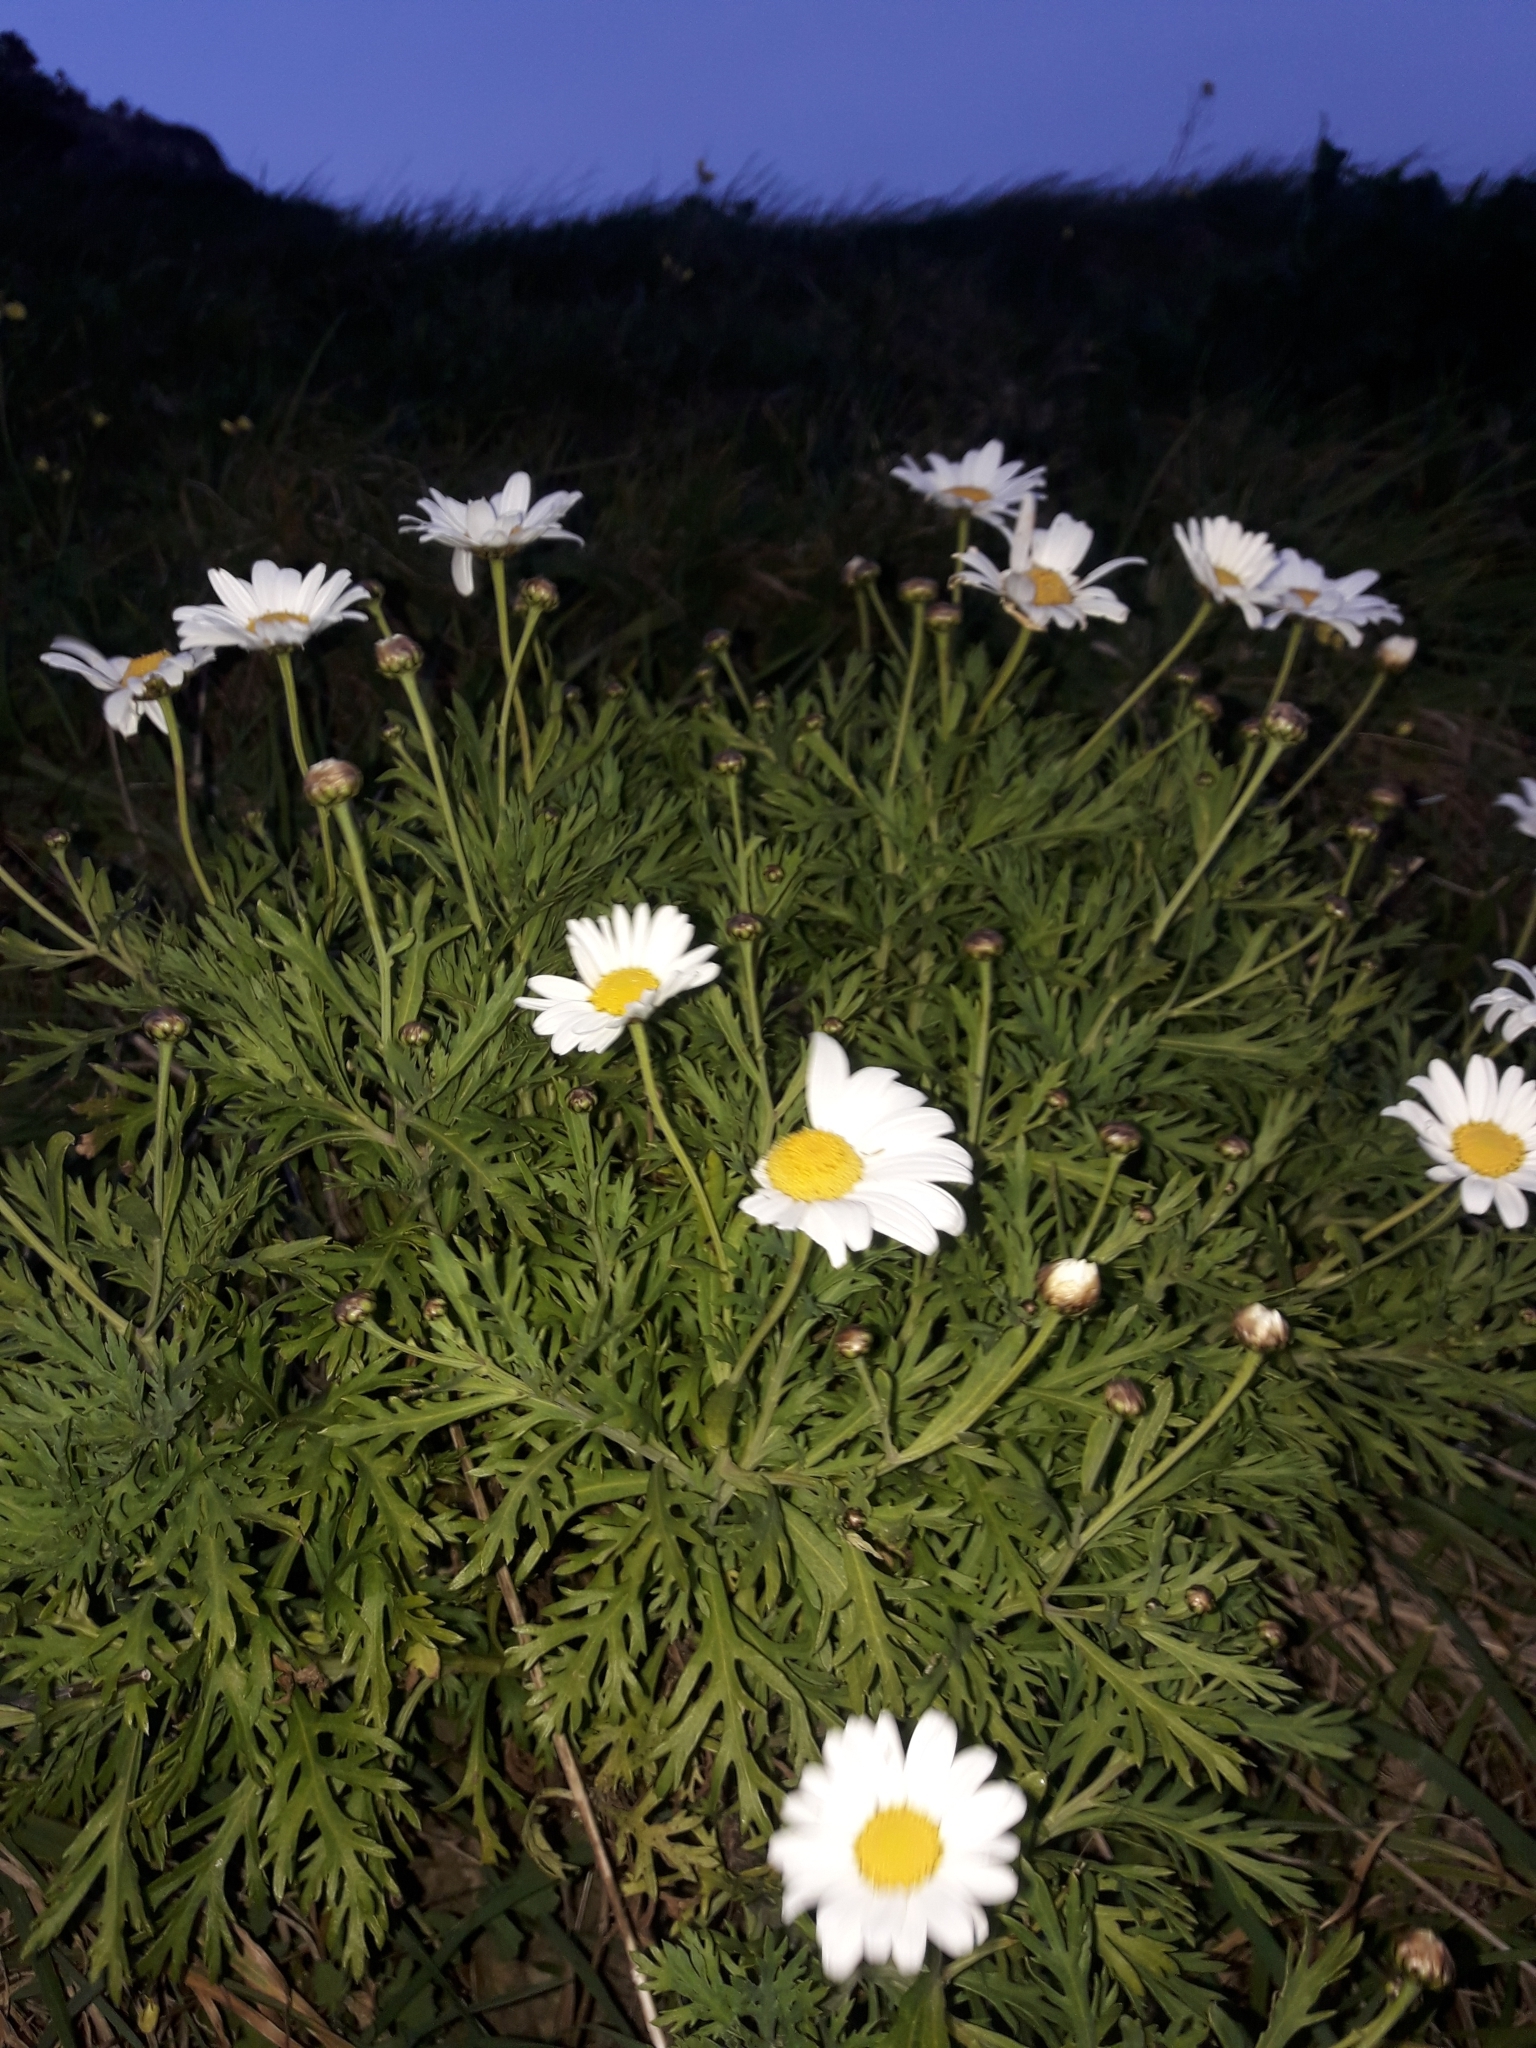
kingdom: Plantae
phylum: Tracheophyta
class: Magnoliopsida
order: Asterales
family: Asteraceae
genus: Argyranthemum
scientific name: Argyranthemum frutescens
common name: Paris daisy
